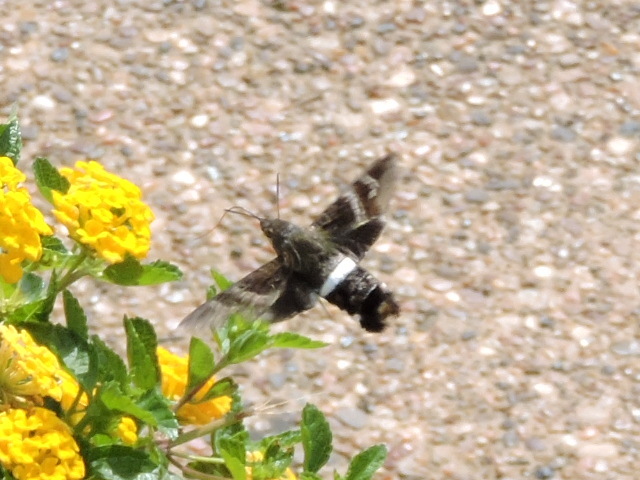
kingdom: Animalia
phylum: Arthropoda
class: Insecta
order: Lepidoptera
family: Sphingidae
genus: Aellopos
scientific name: Aellopos titan
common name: Titan sphinx
